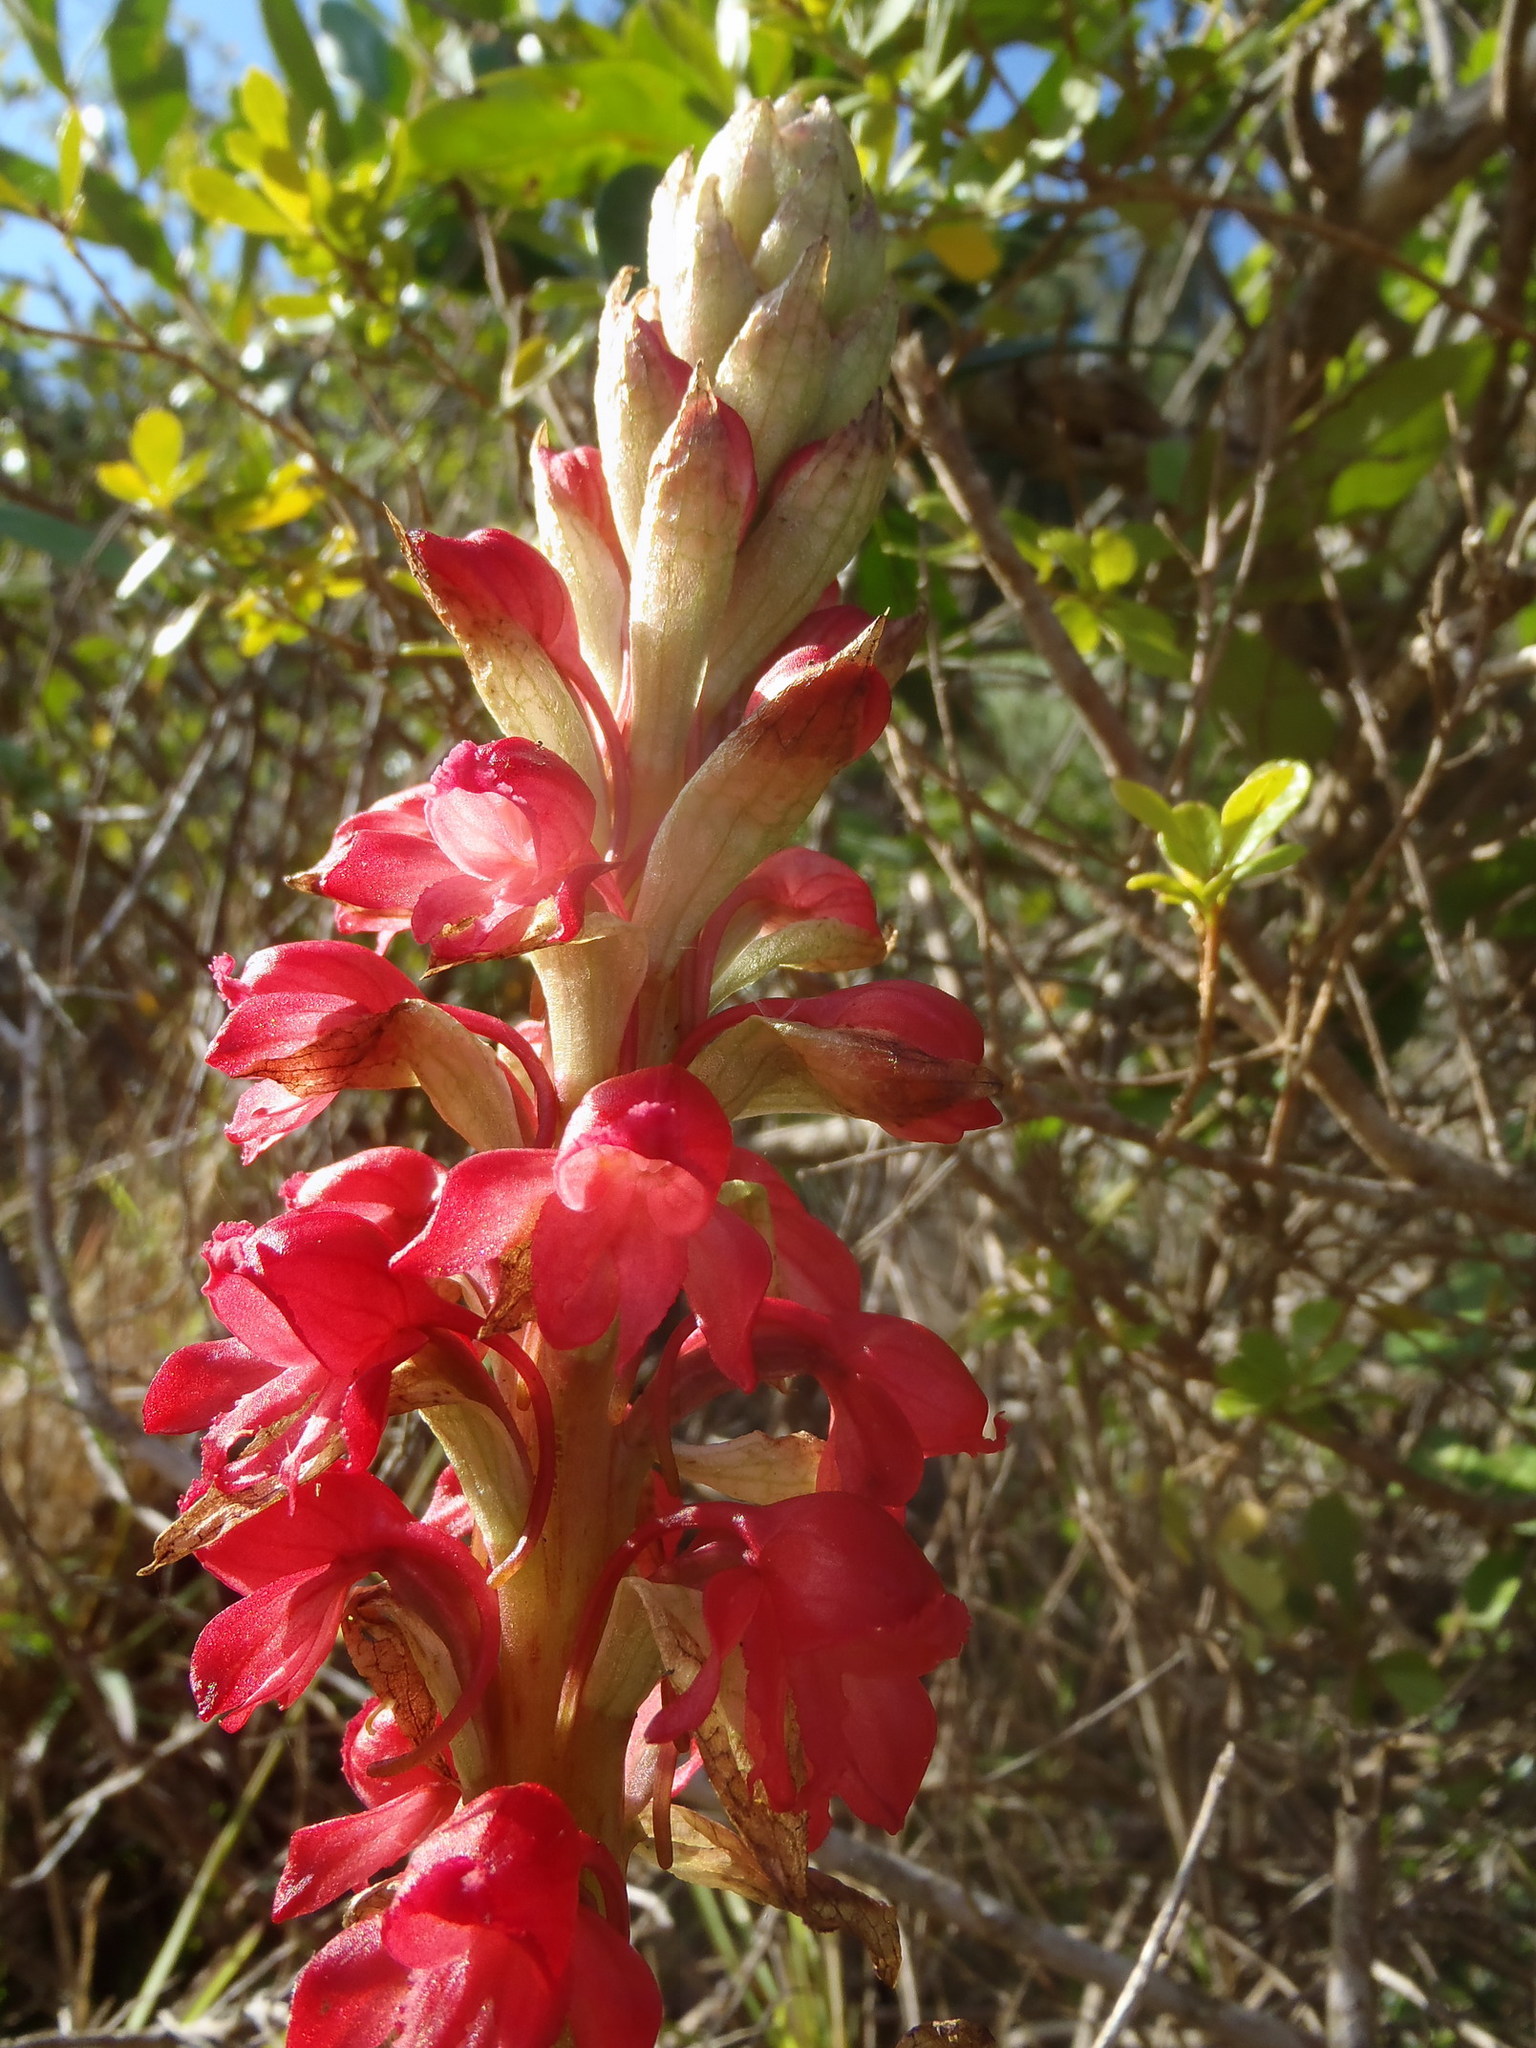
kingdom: Plantae
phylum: Tracheophyta
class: Liliopsida
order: Asparagales
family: Orchidaceae
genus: Satyrium
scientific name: Satyrium princeps
